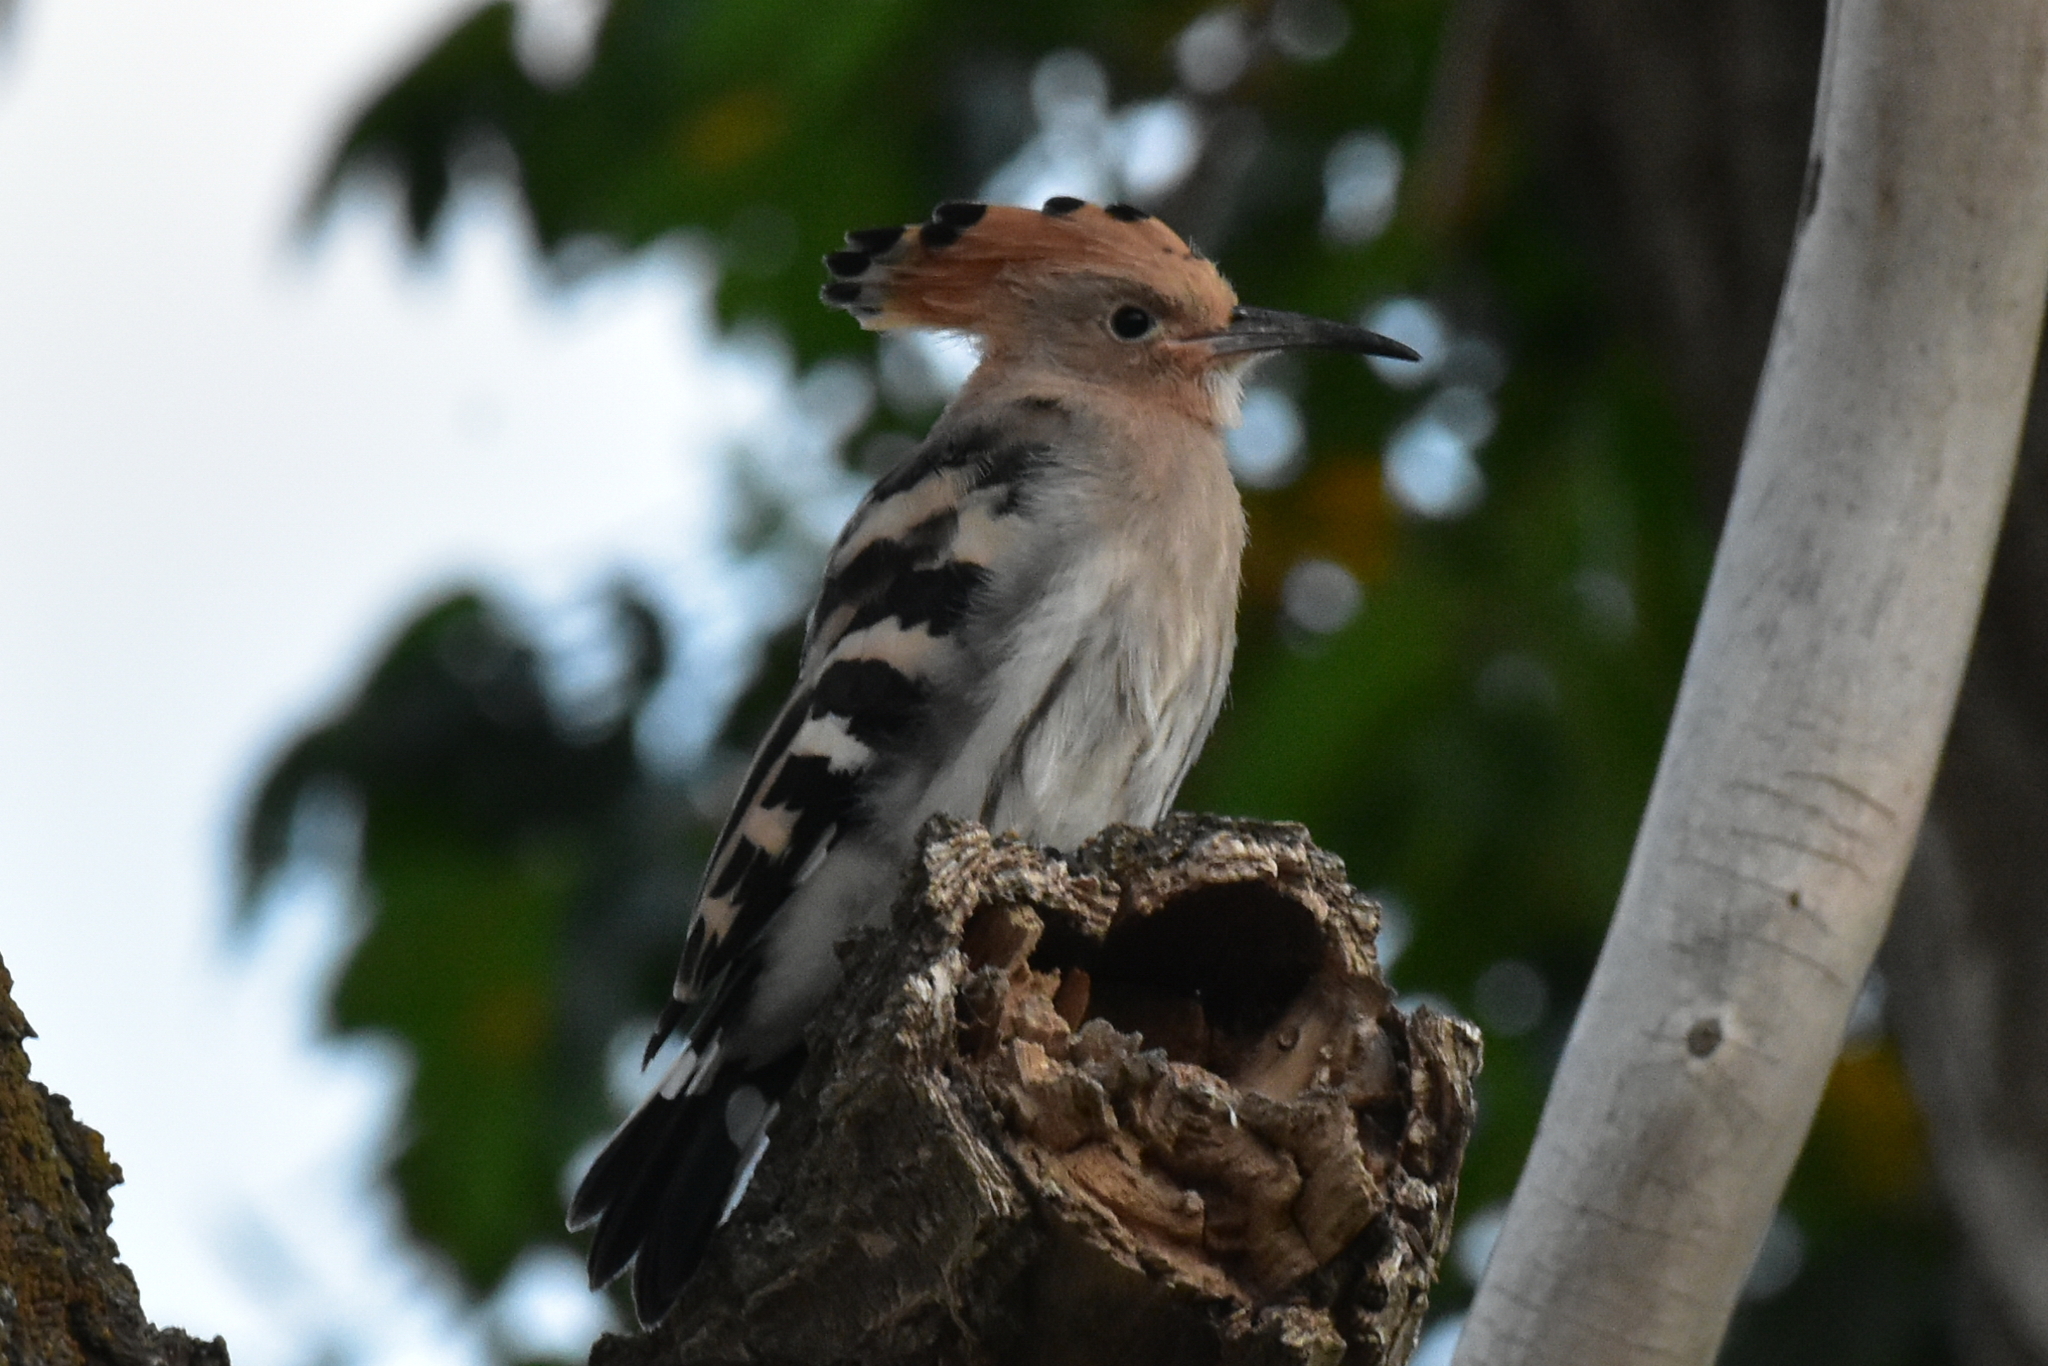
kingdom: Animalia
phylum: Chordata
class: Aves
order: Bucerotiformes
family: Upupidae
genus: Upupa
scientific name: Upupa epops
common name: Eurasian hoopoe
